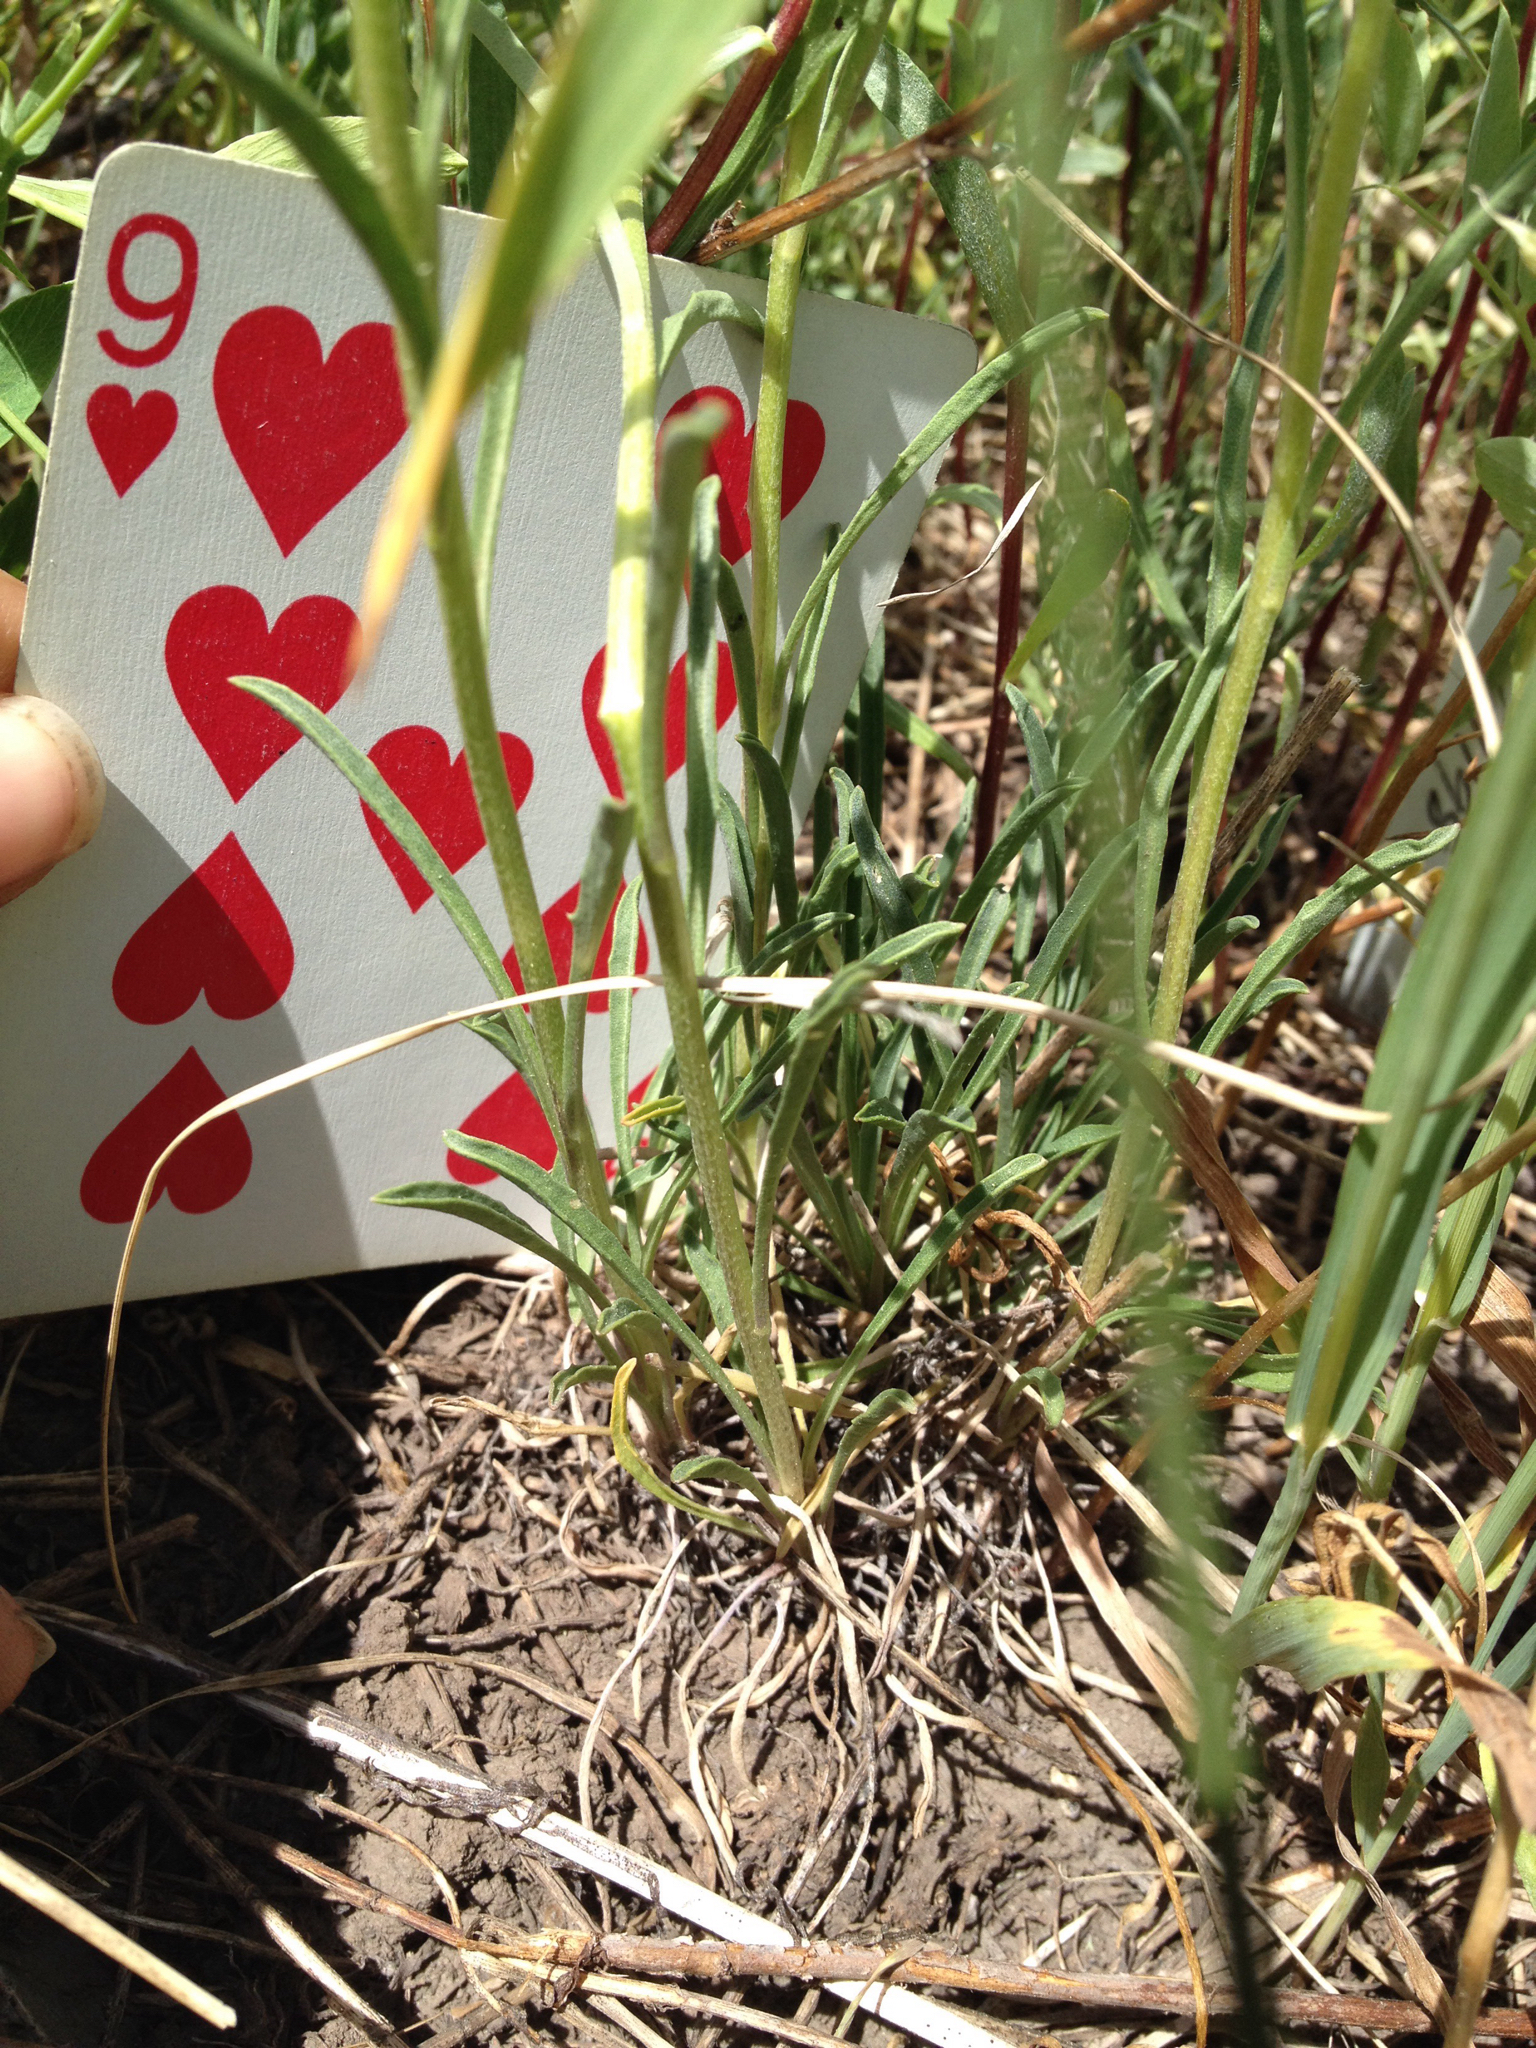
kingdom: Plantae
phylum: Tracheophyta
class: Magnoliopsida
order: Brassicales
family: Brassicaceae
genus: Erysimum
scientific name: Erysimum capitatum
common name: Western wallflower
